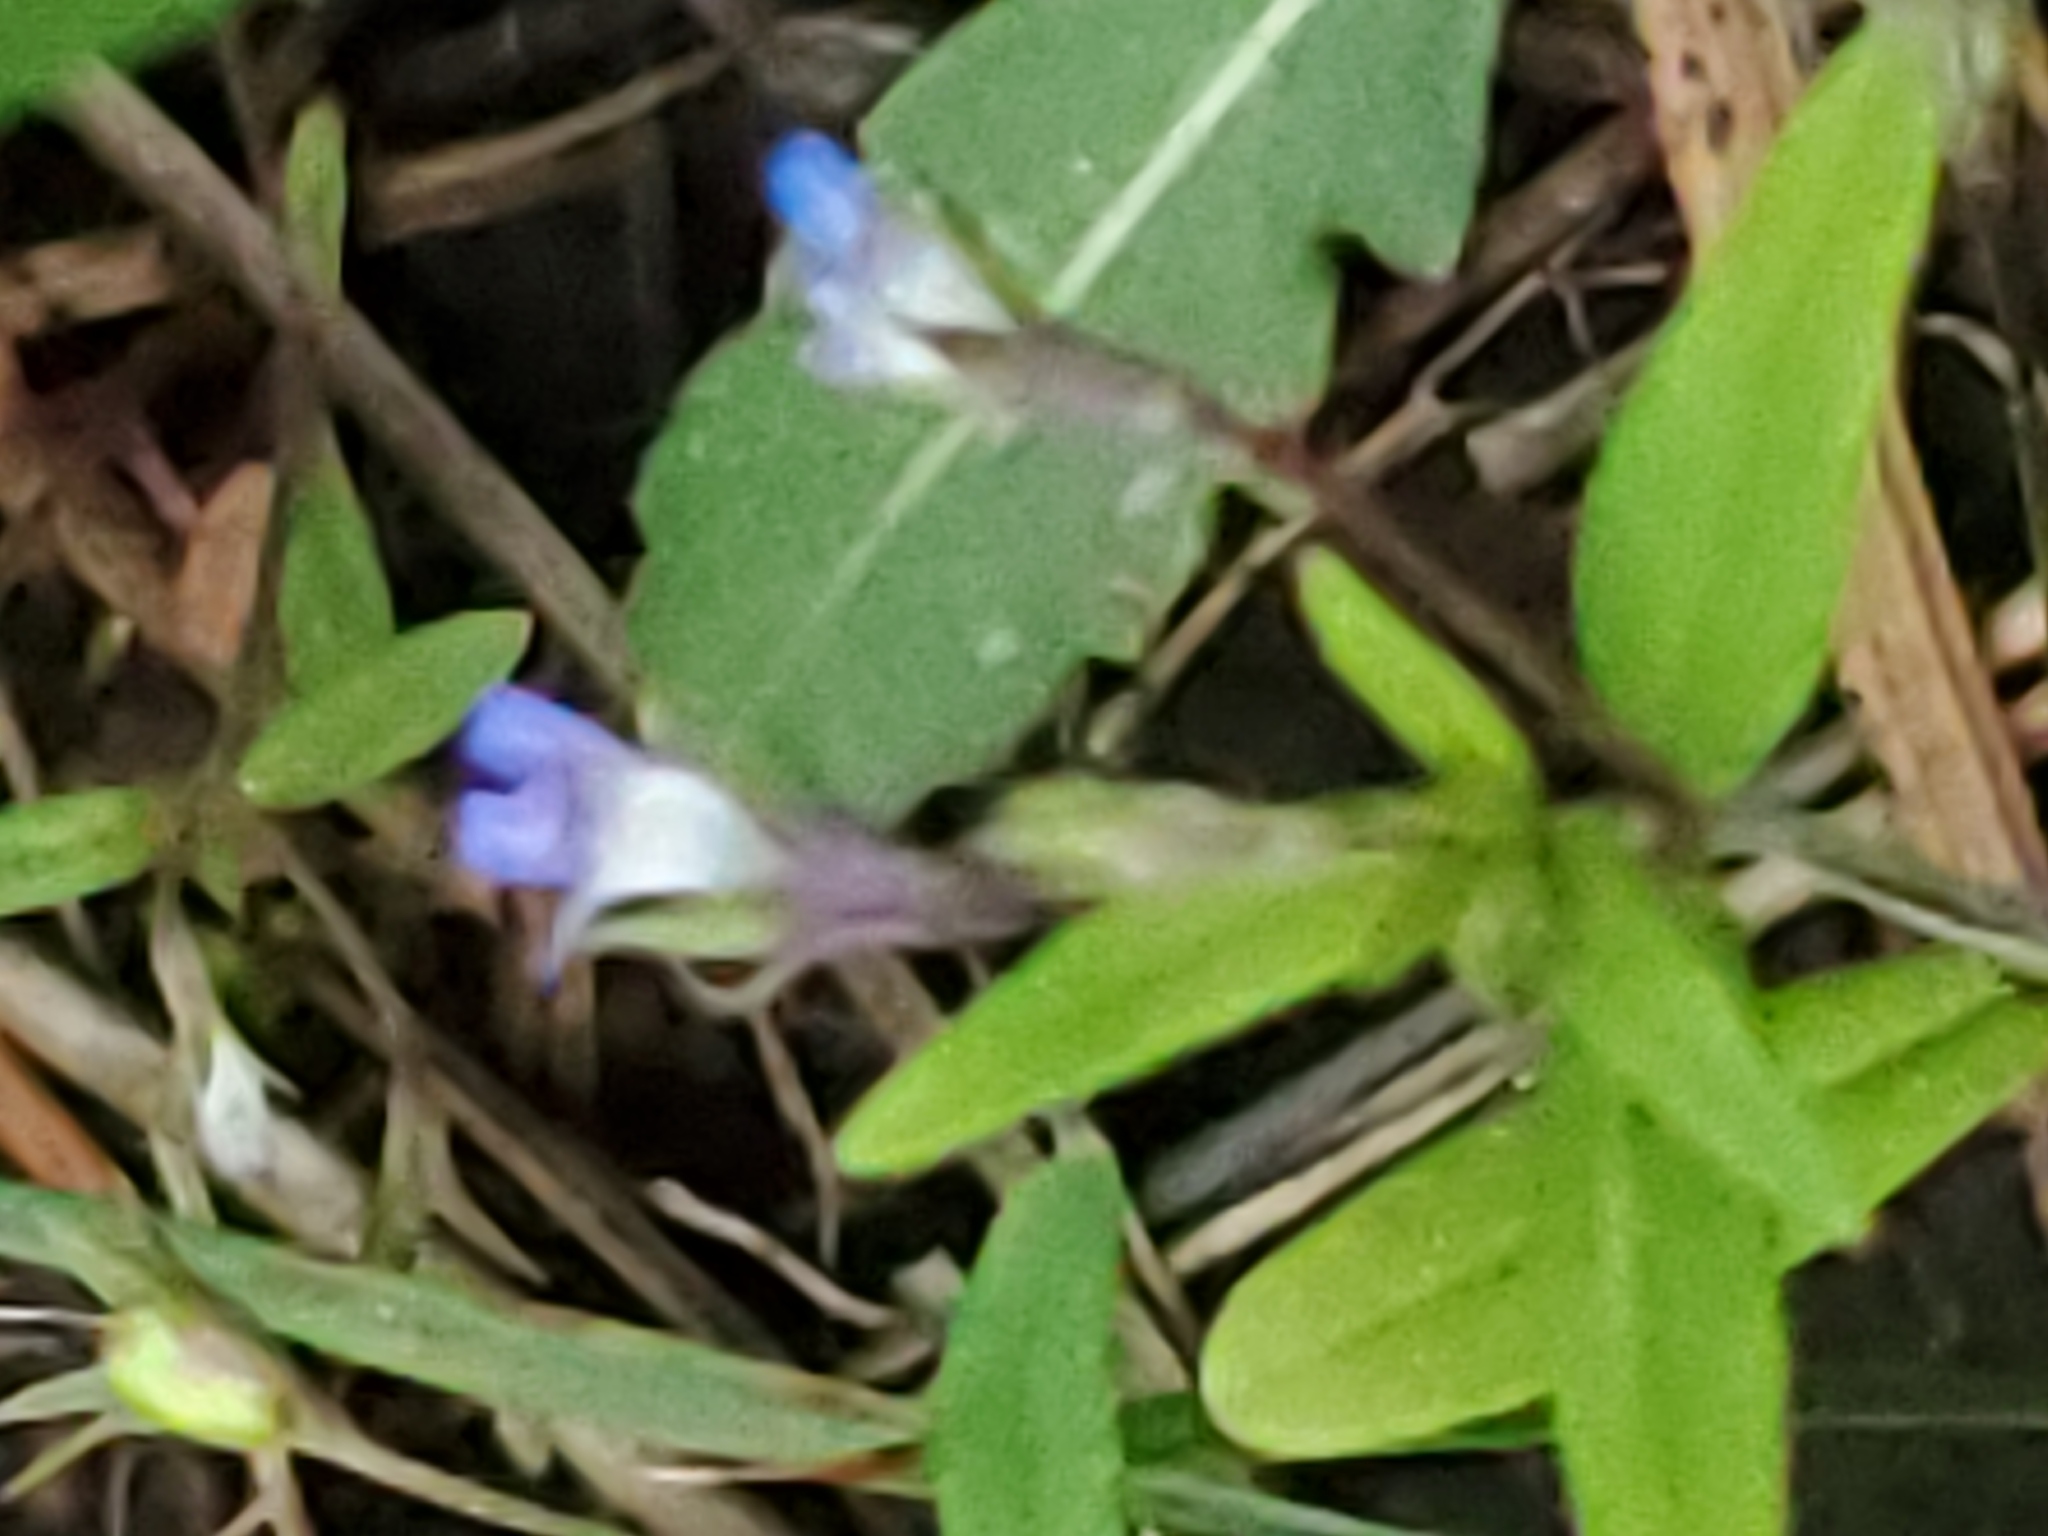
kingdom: Plantae
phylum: Tracheophyta
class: Magnoliopsida
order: Lamiales
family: Plantaginaceae
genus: Collinsia
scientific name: Collinsia parviflora
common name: Blue-lips
